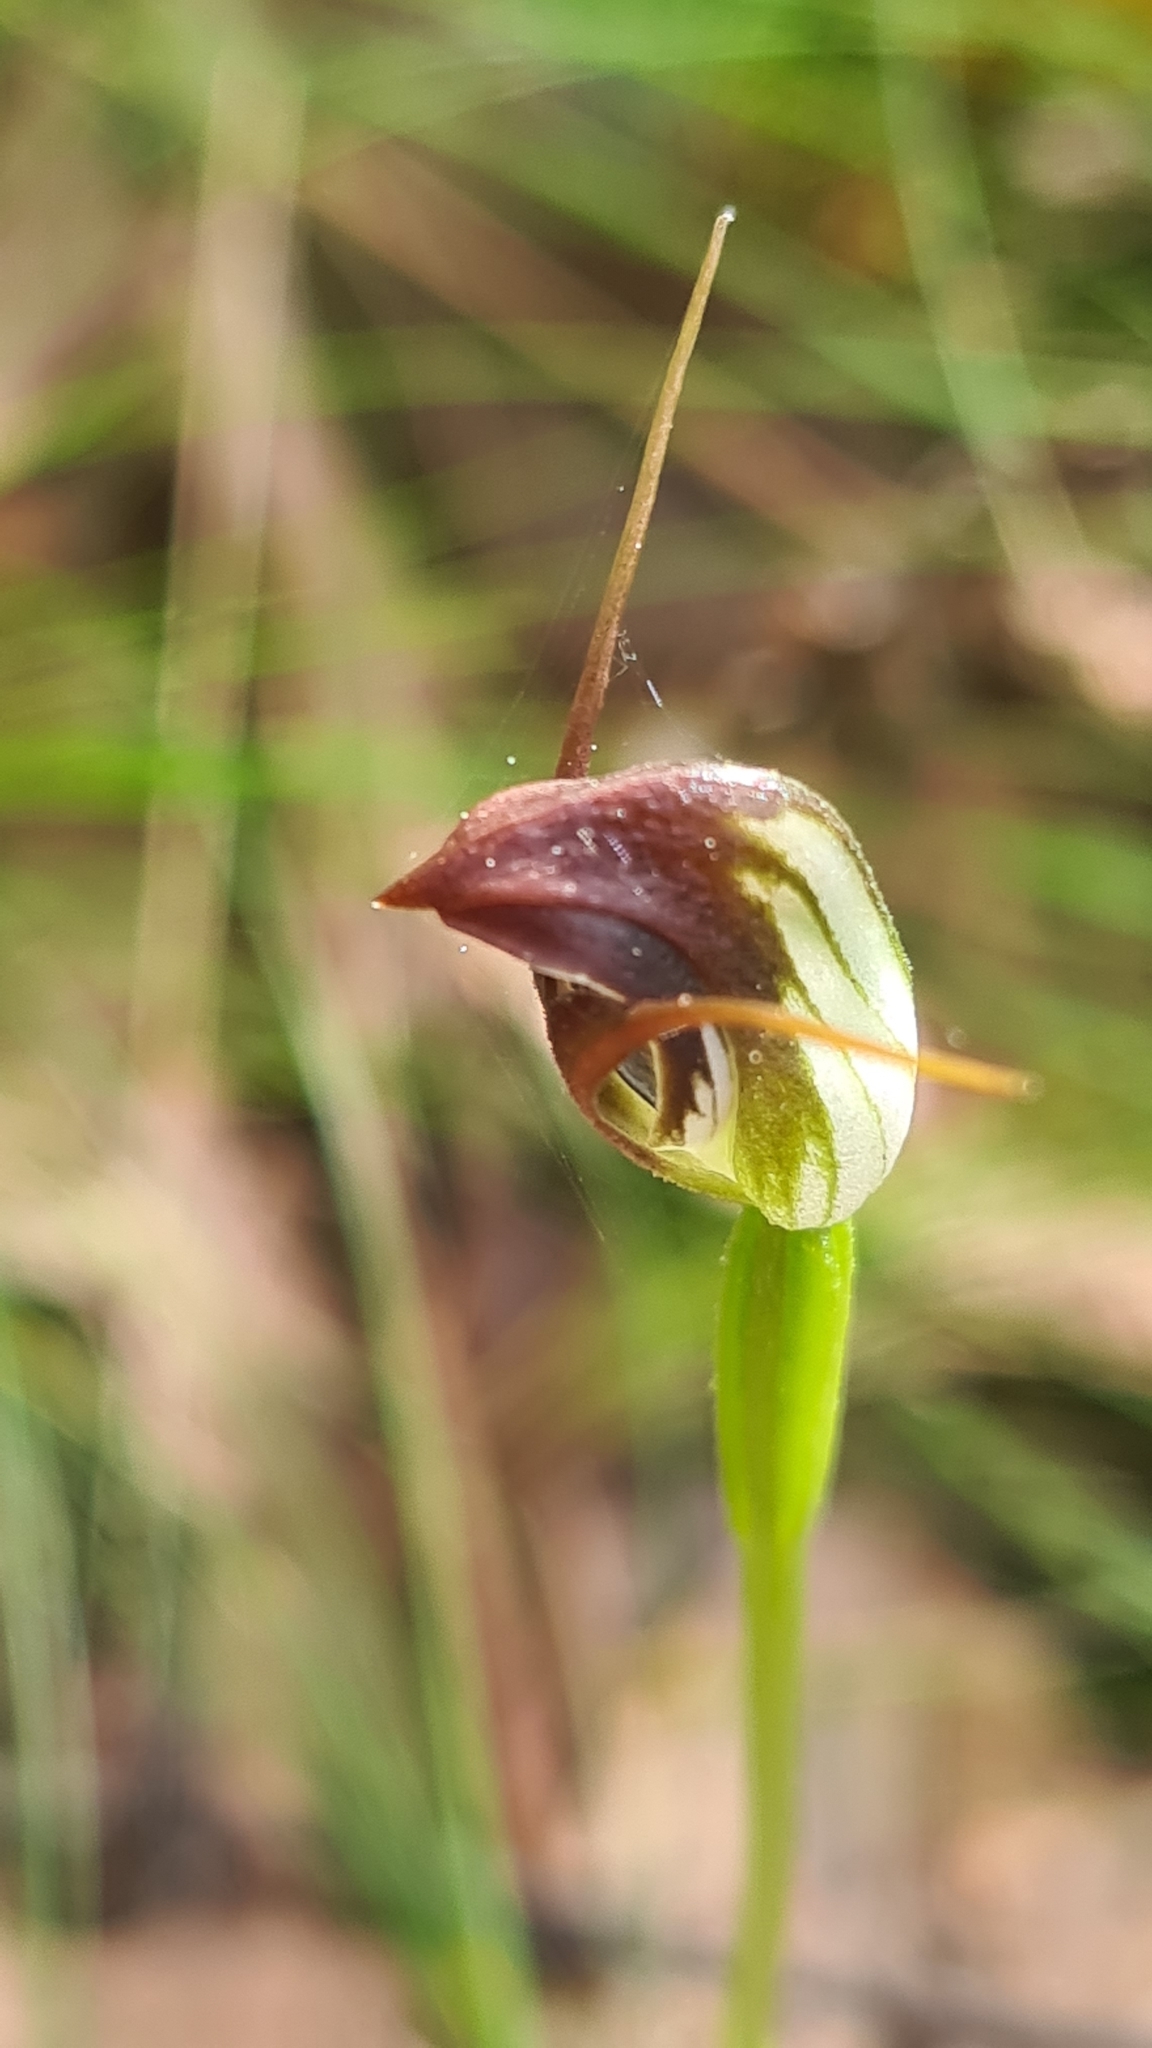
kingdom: Plantae
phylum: Tracheophyta
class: Liliopsida
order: Asparagales
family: Orchidaceae
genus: Pterostylis
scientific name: Pterostylis pedunculata
